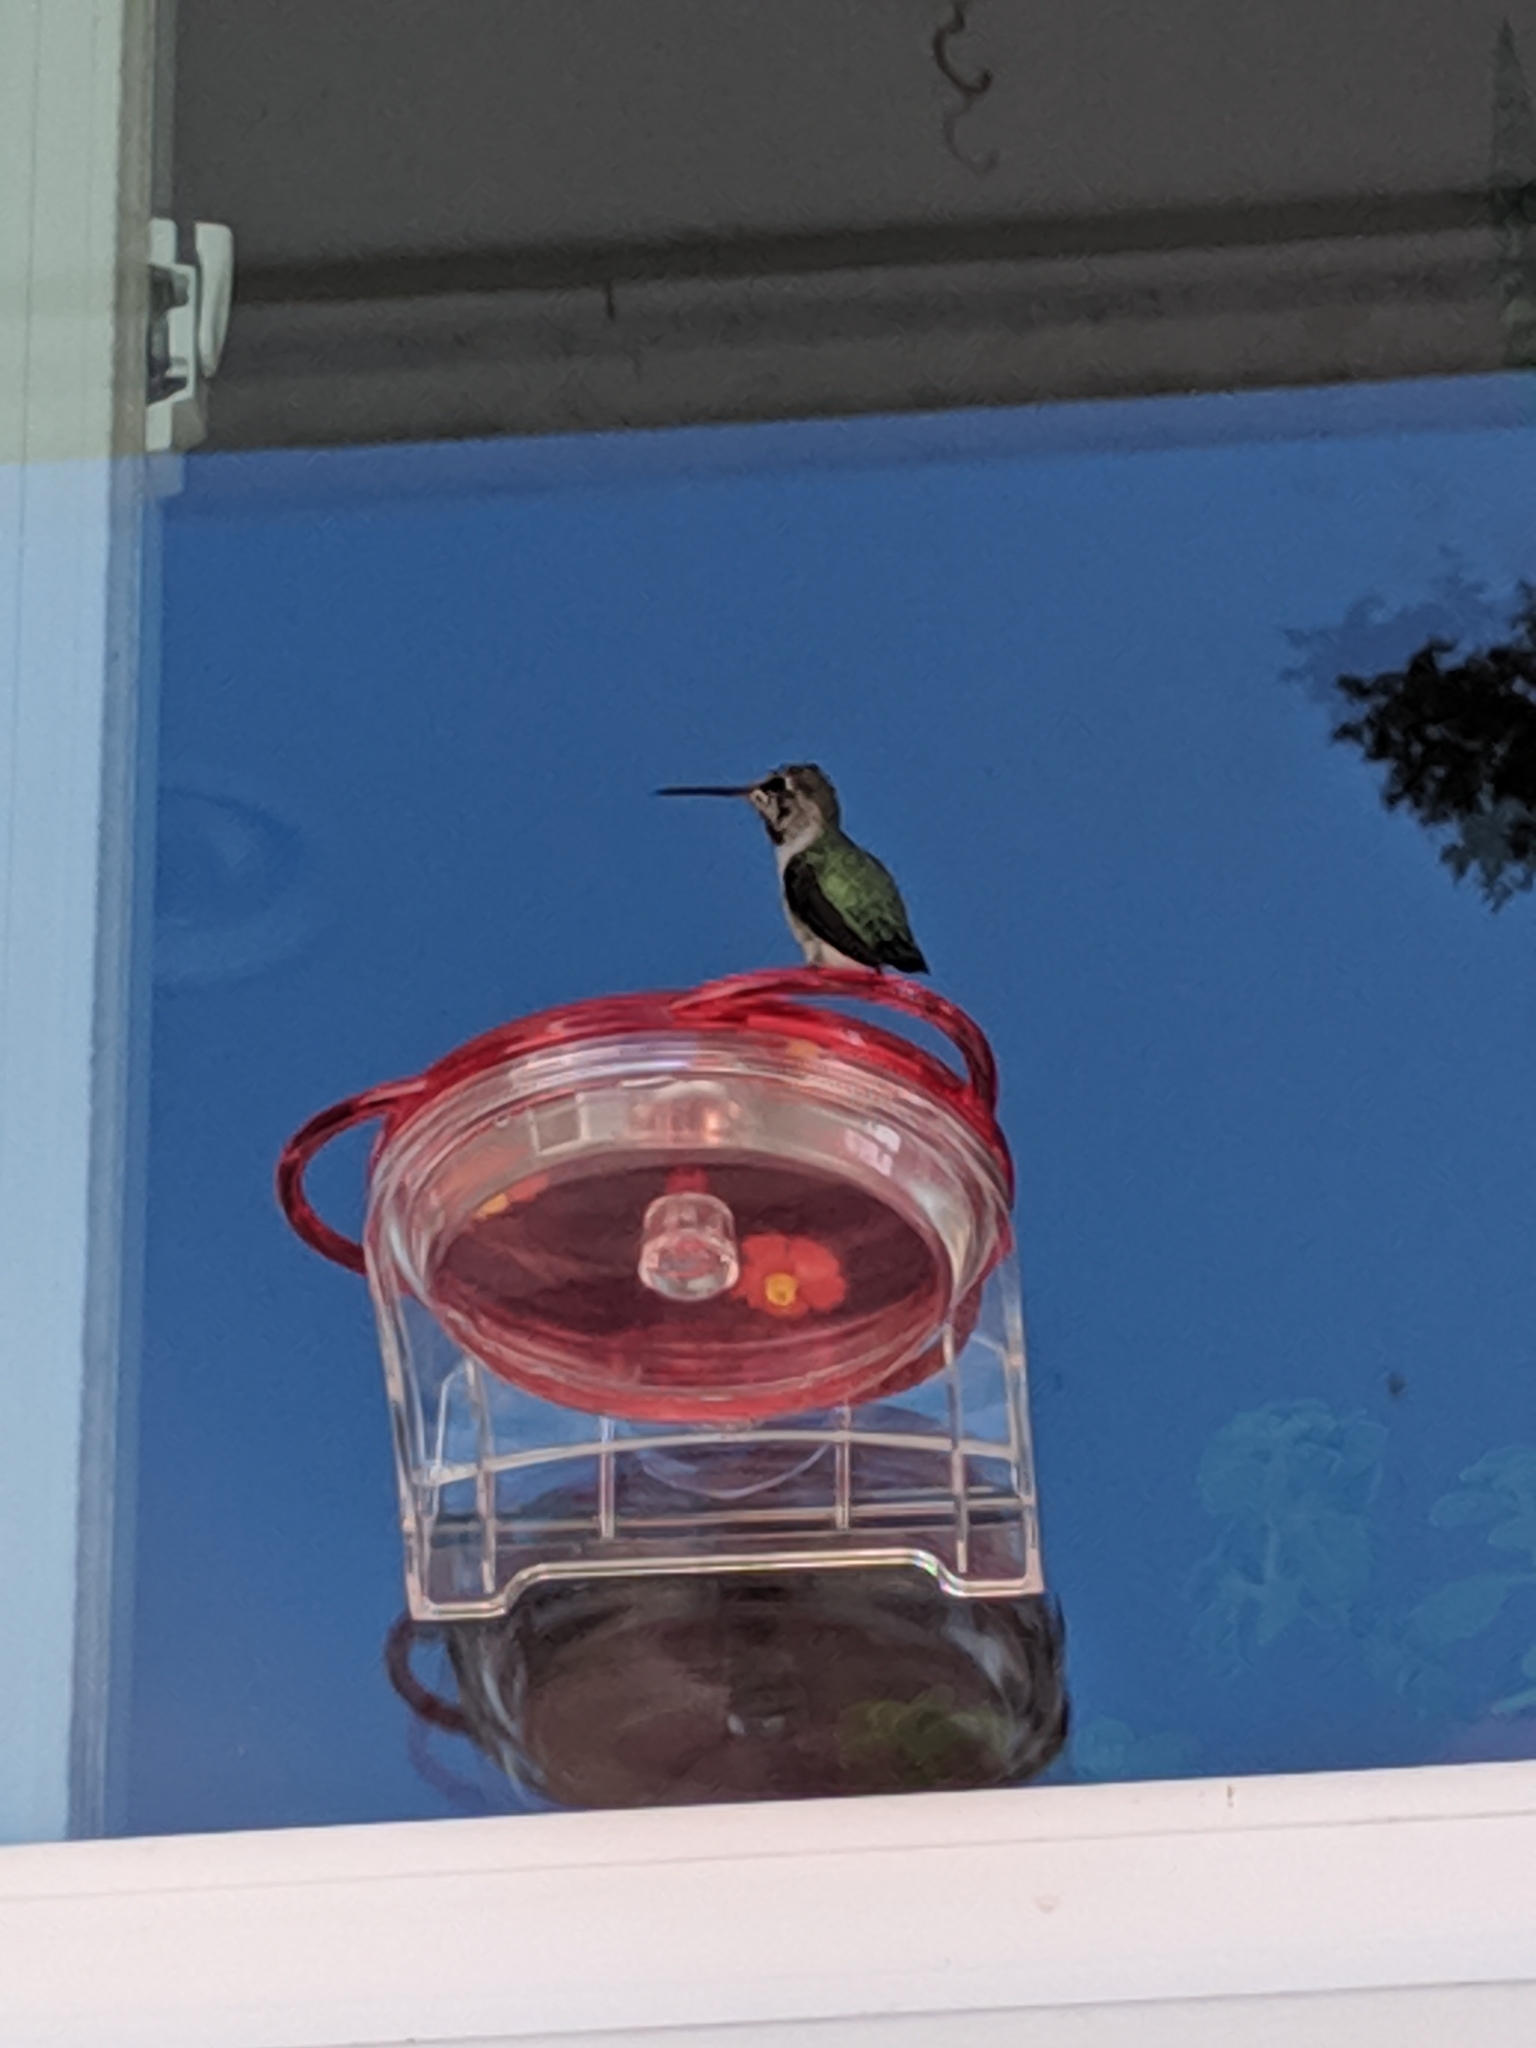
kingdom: Animalia
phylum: Chordata
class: Aves
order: Apodiformes
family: Trochilidae
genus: Calypte
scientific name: Calypte anna
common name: Anna's hummingbird
